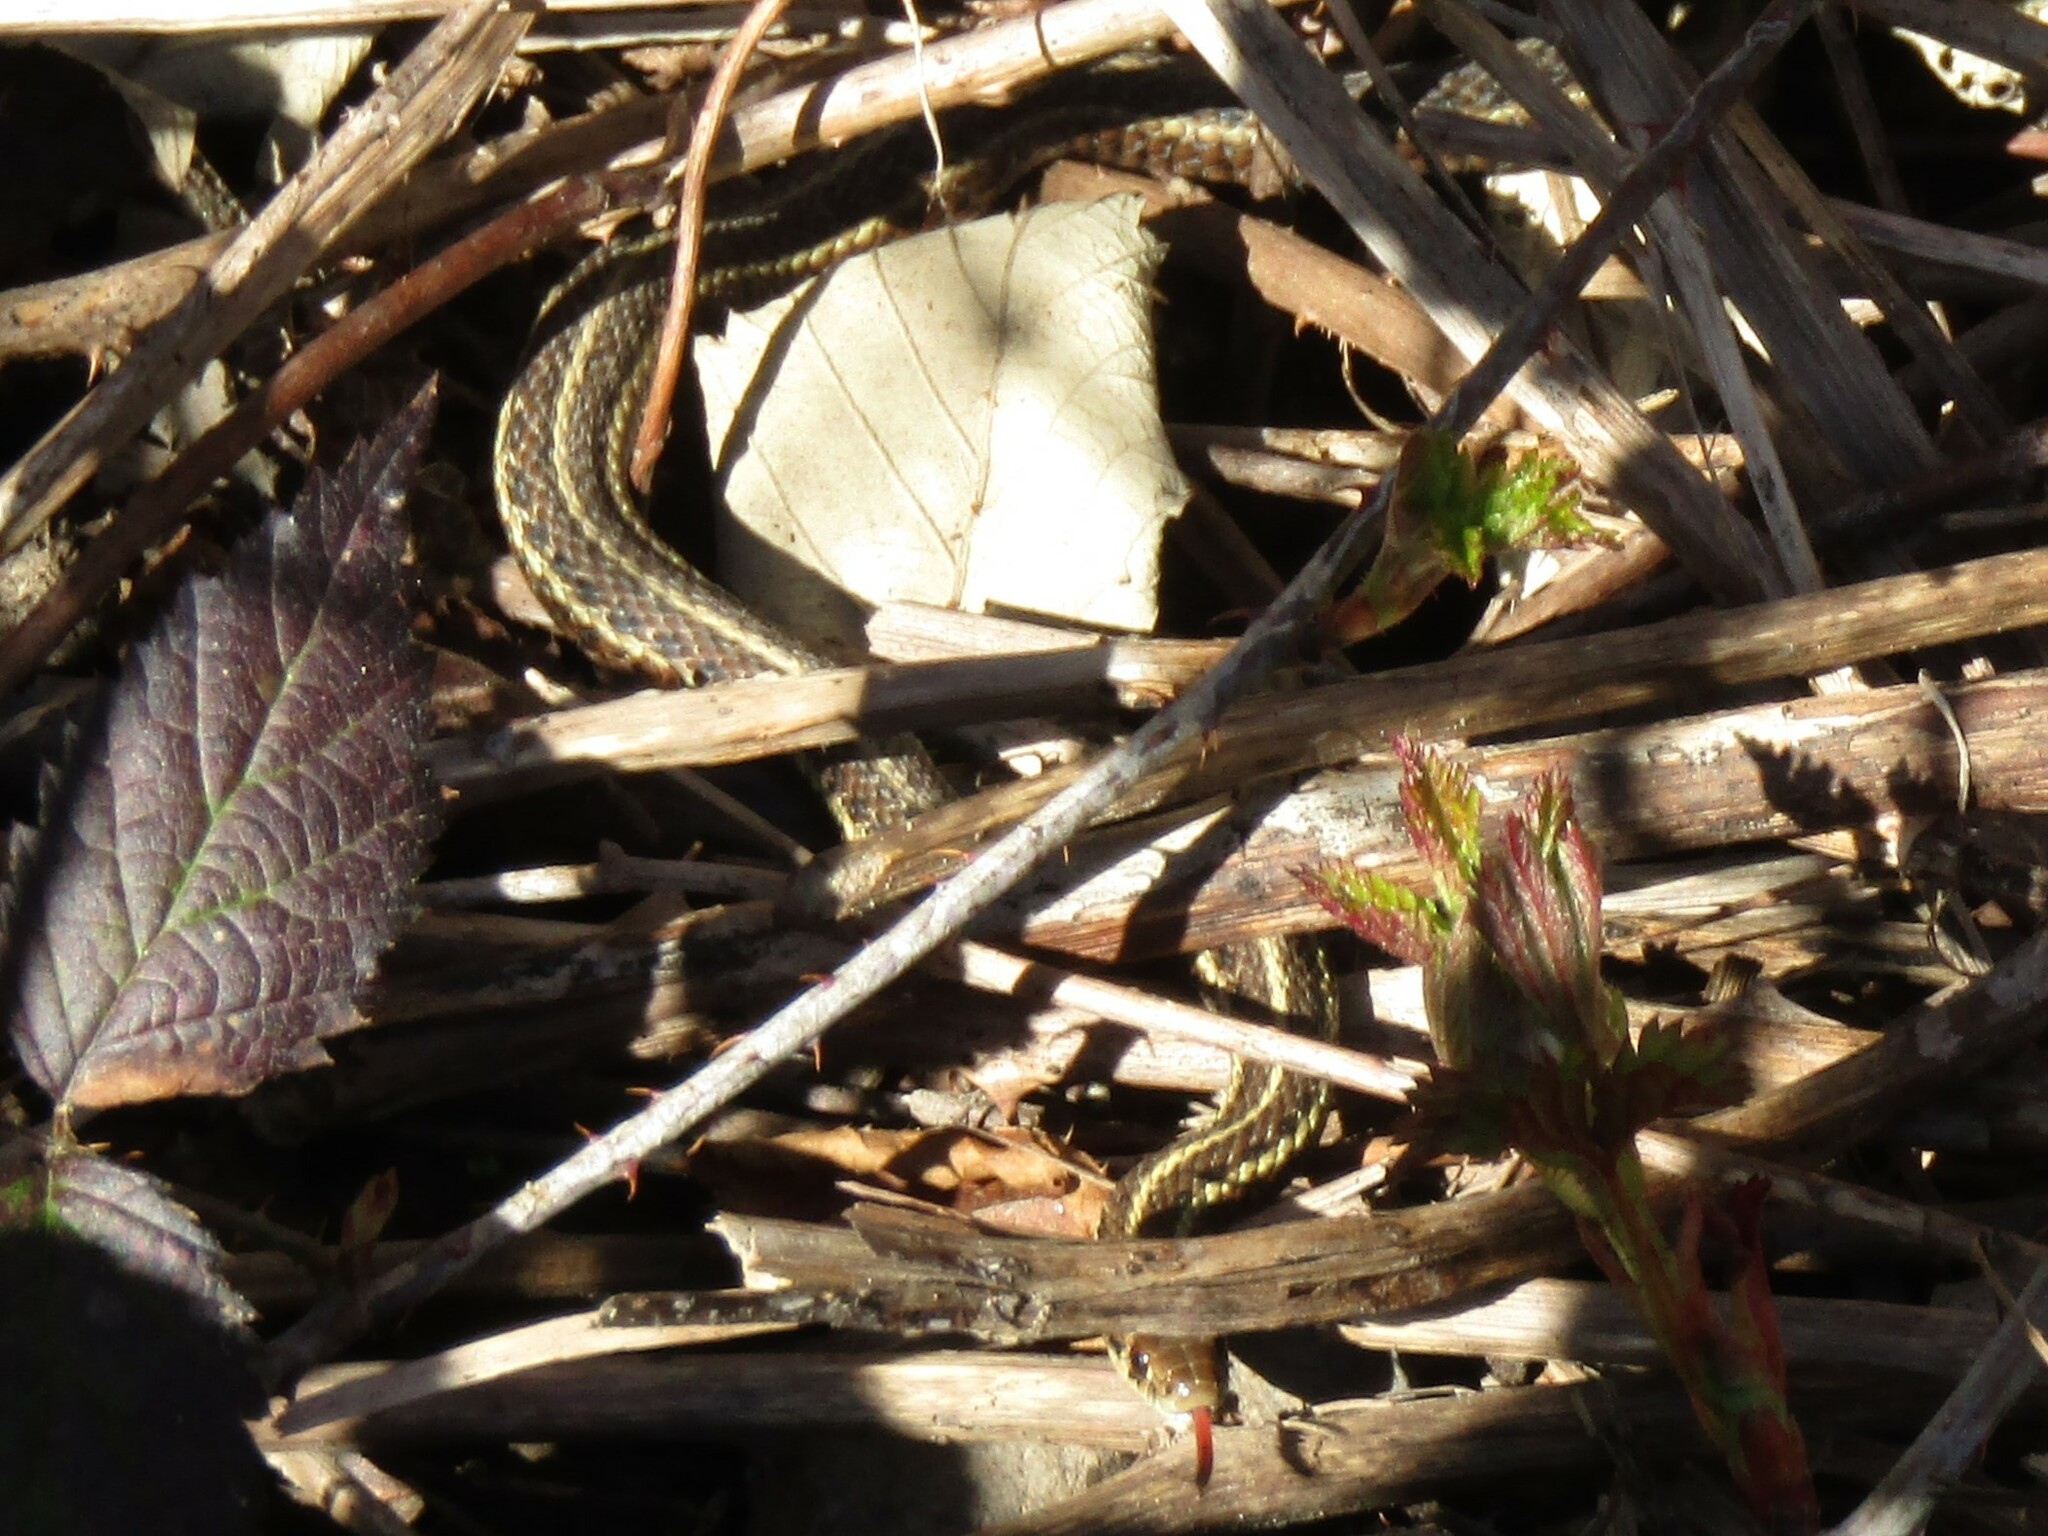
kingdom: Animalia
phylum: Chordata
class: Squamata
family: Colubridae
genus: Thamnophis
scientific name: Thamnophis ordinoides
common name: Northwestern garter snake
